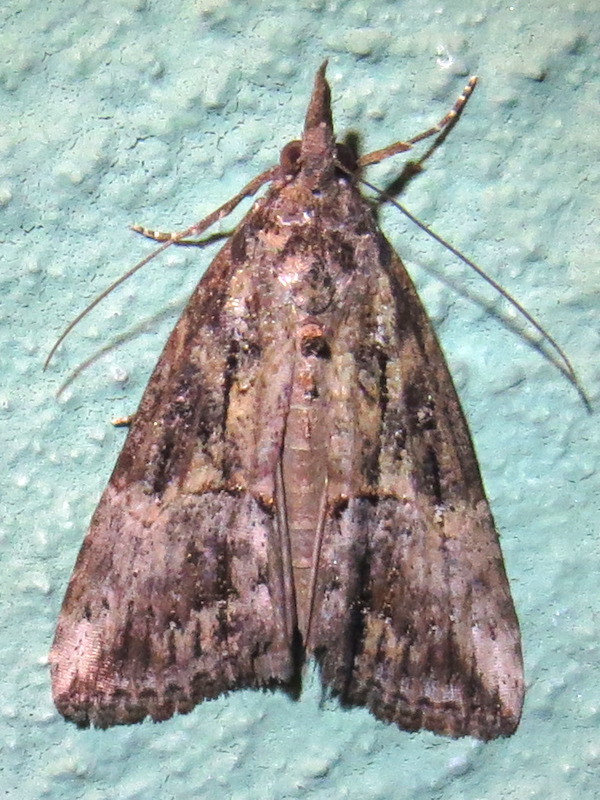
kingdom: Animalia
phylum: Arthropoda
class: Insecta
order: Lepidoptera
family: Erebidae
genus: Hypena
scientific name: Hypena scabra
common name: Green cloverworm
